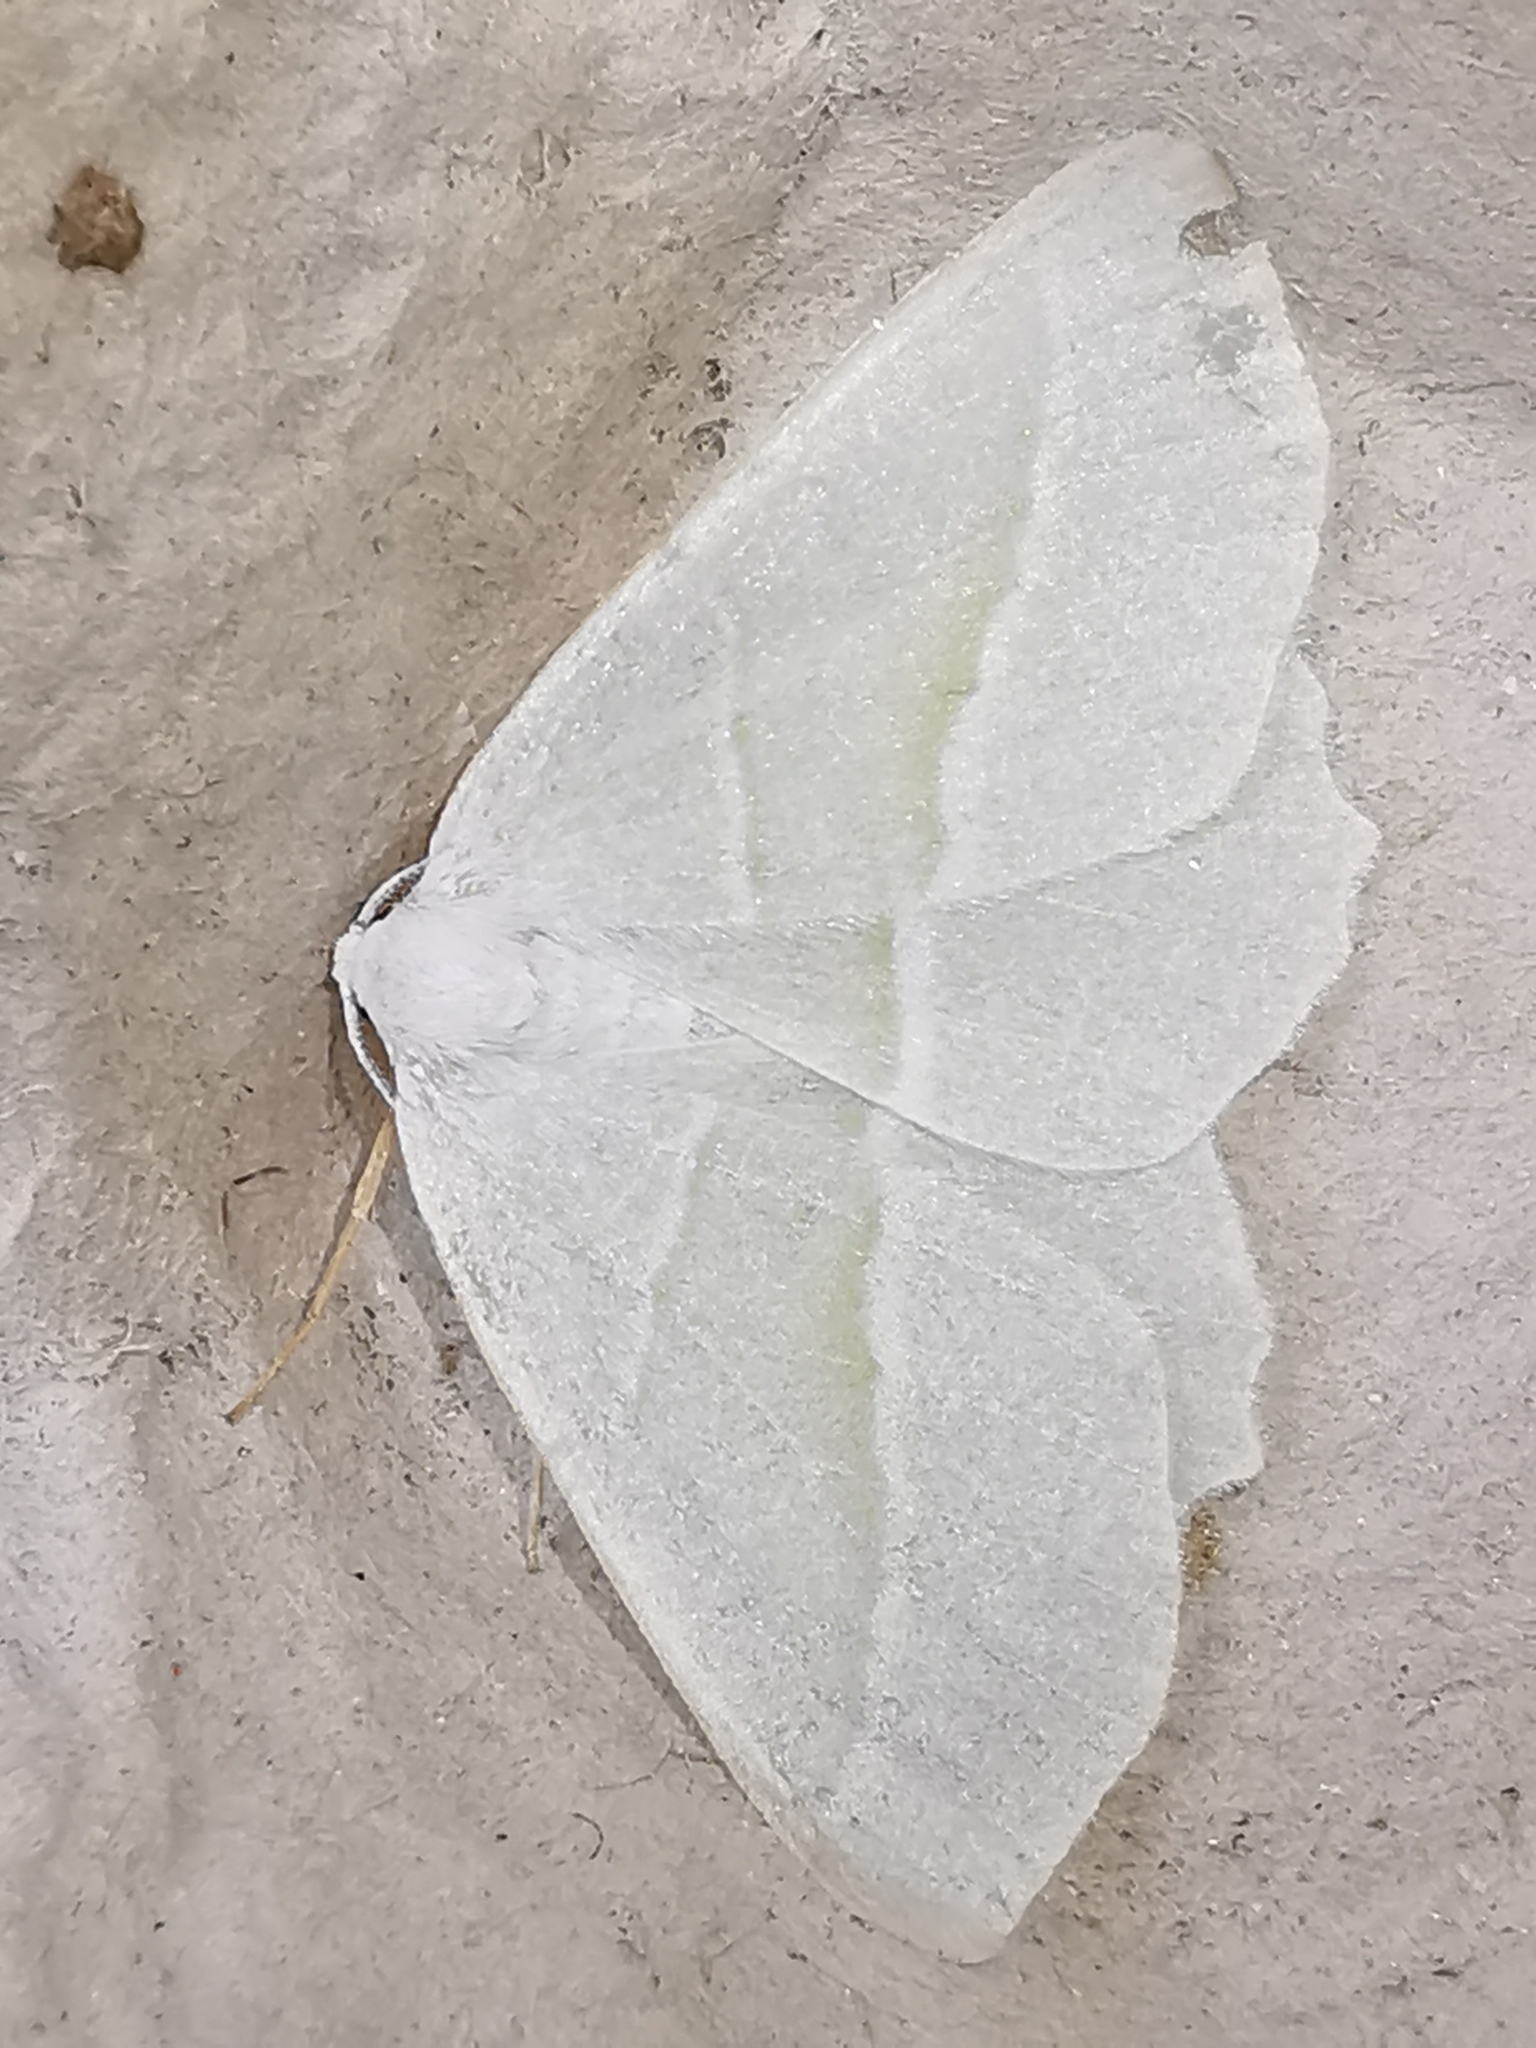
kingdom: Animalia
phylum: Arthropoda
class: Insecta
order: Lepidoptera
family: Geometridae
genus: Campaea
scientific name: Campaea margaritaria
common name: Light emerald
